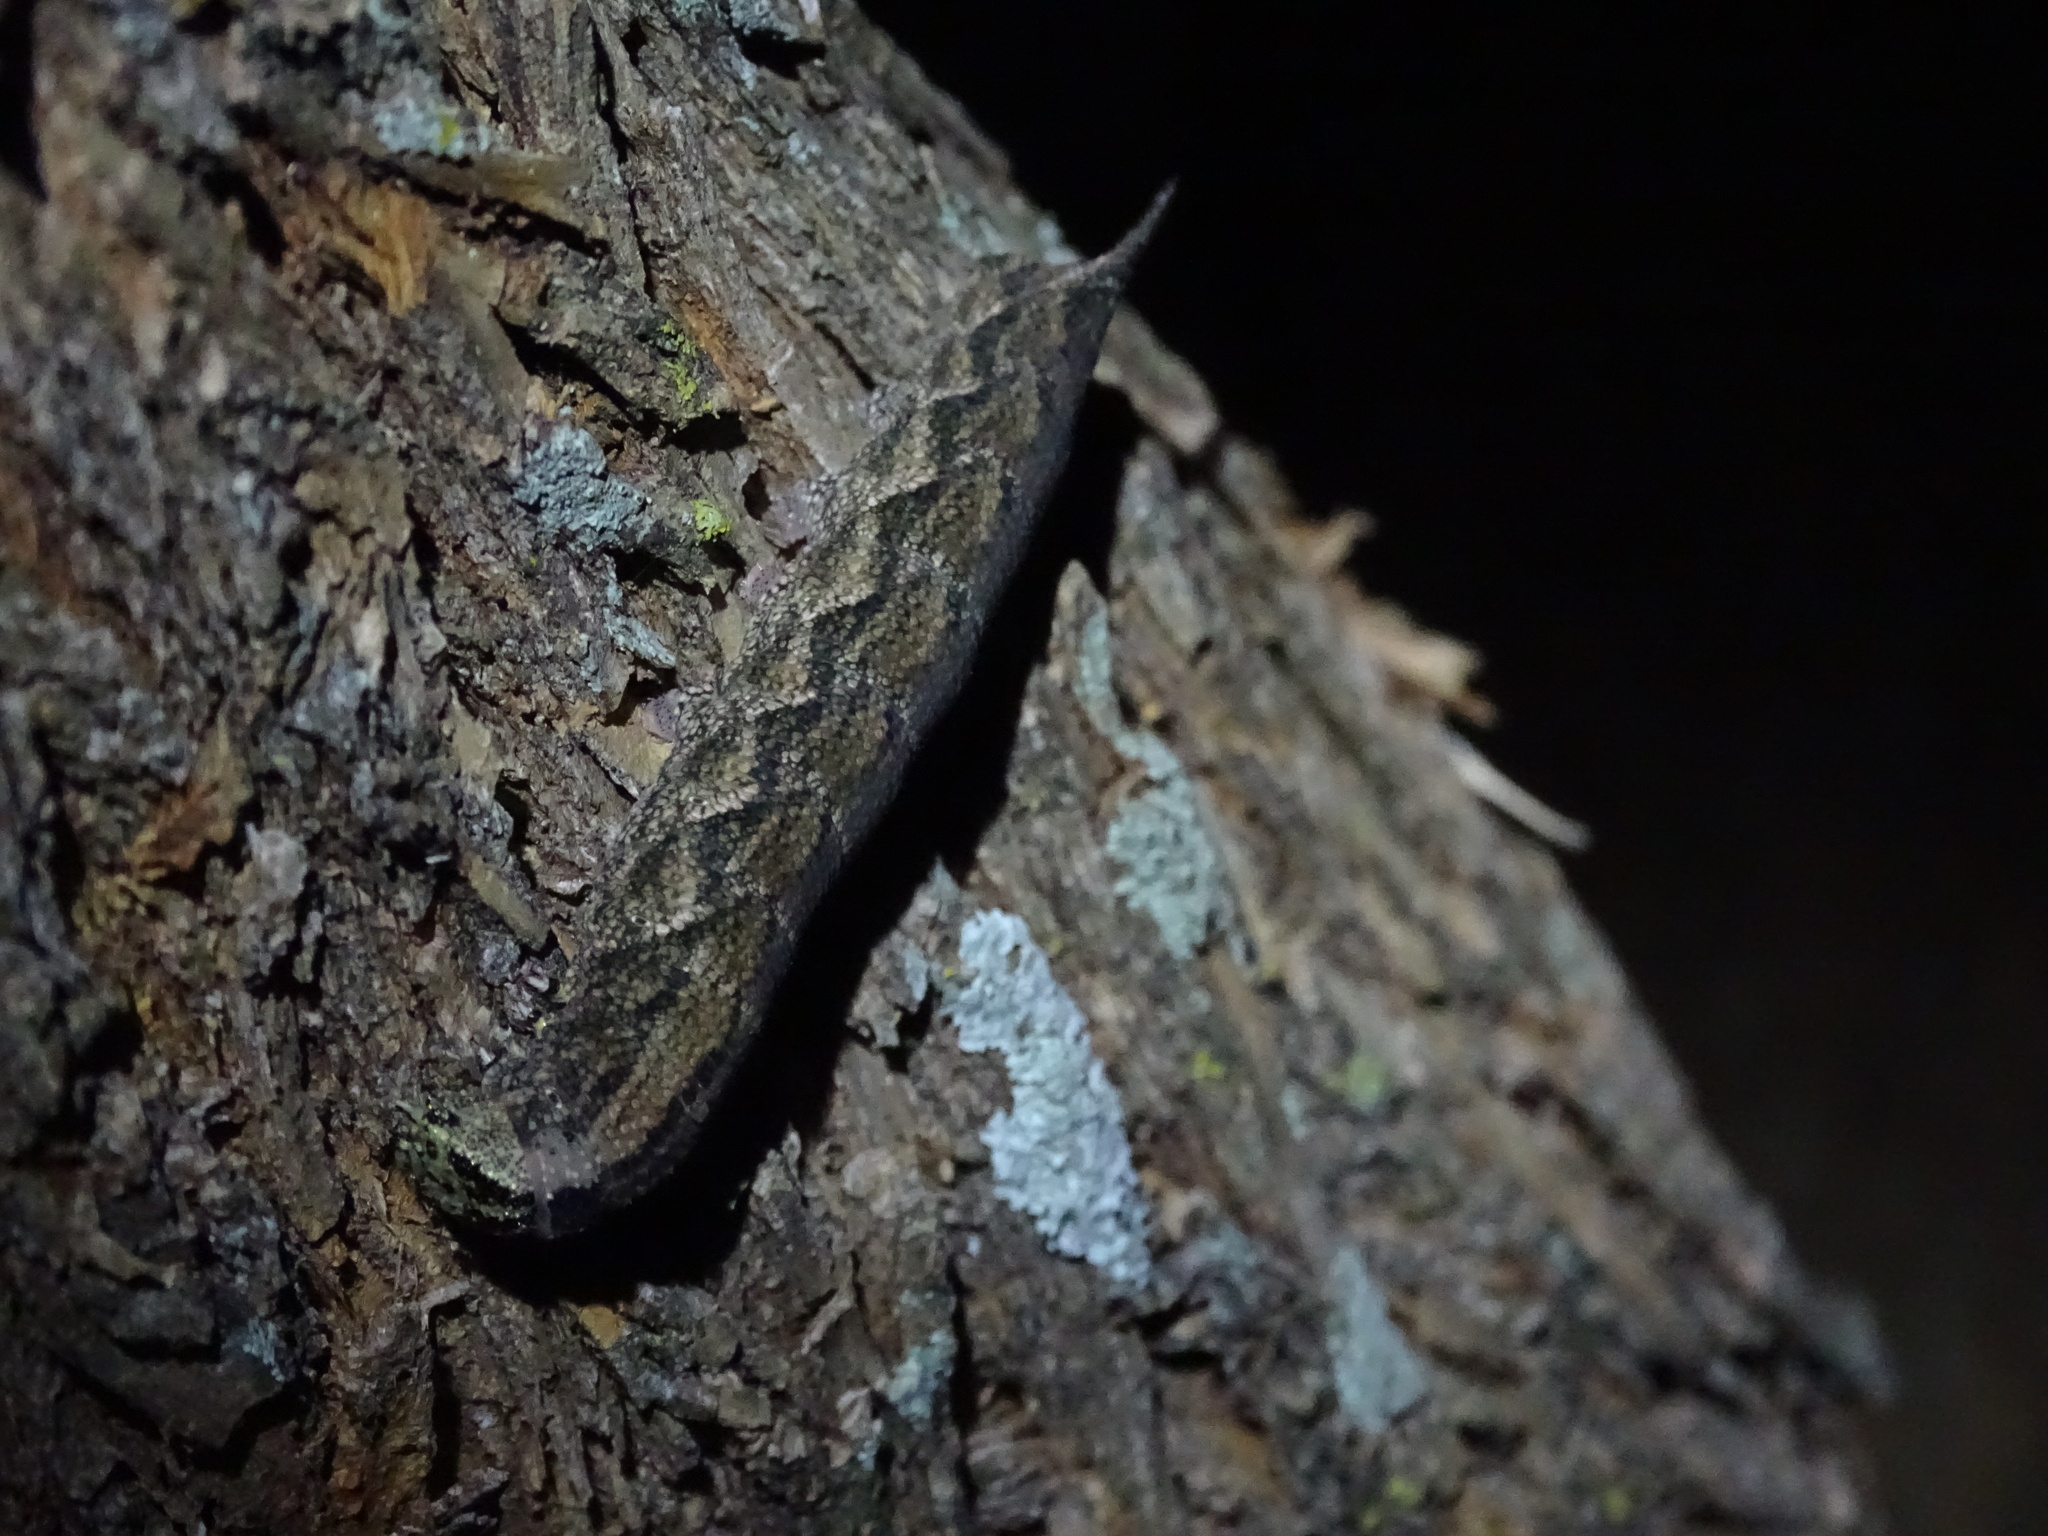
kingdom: Animalia
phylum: Arthropoda
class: Insecta
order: Lepidoptera
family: Sphingidae
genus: Ceratomia
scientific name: Ceratomia hageni
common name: Hagen's sphinx
